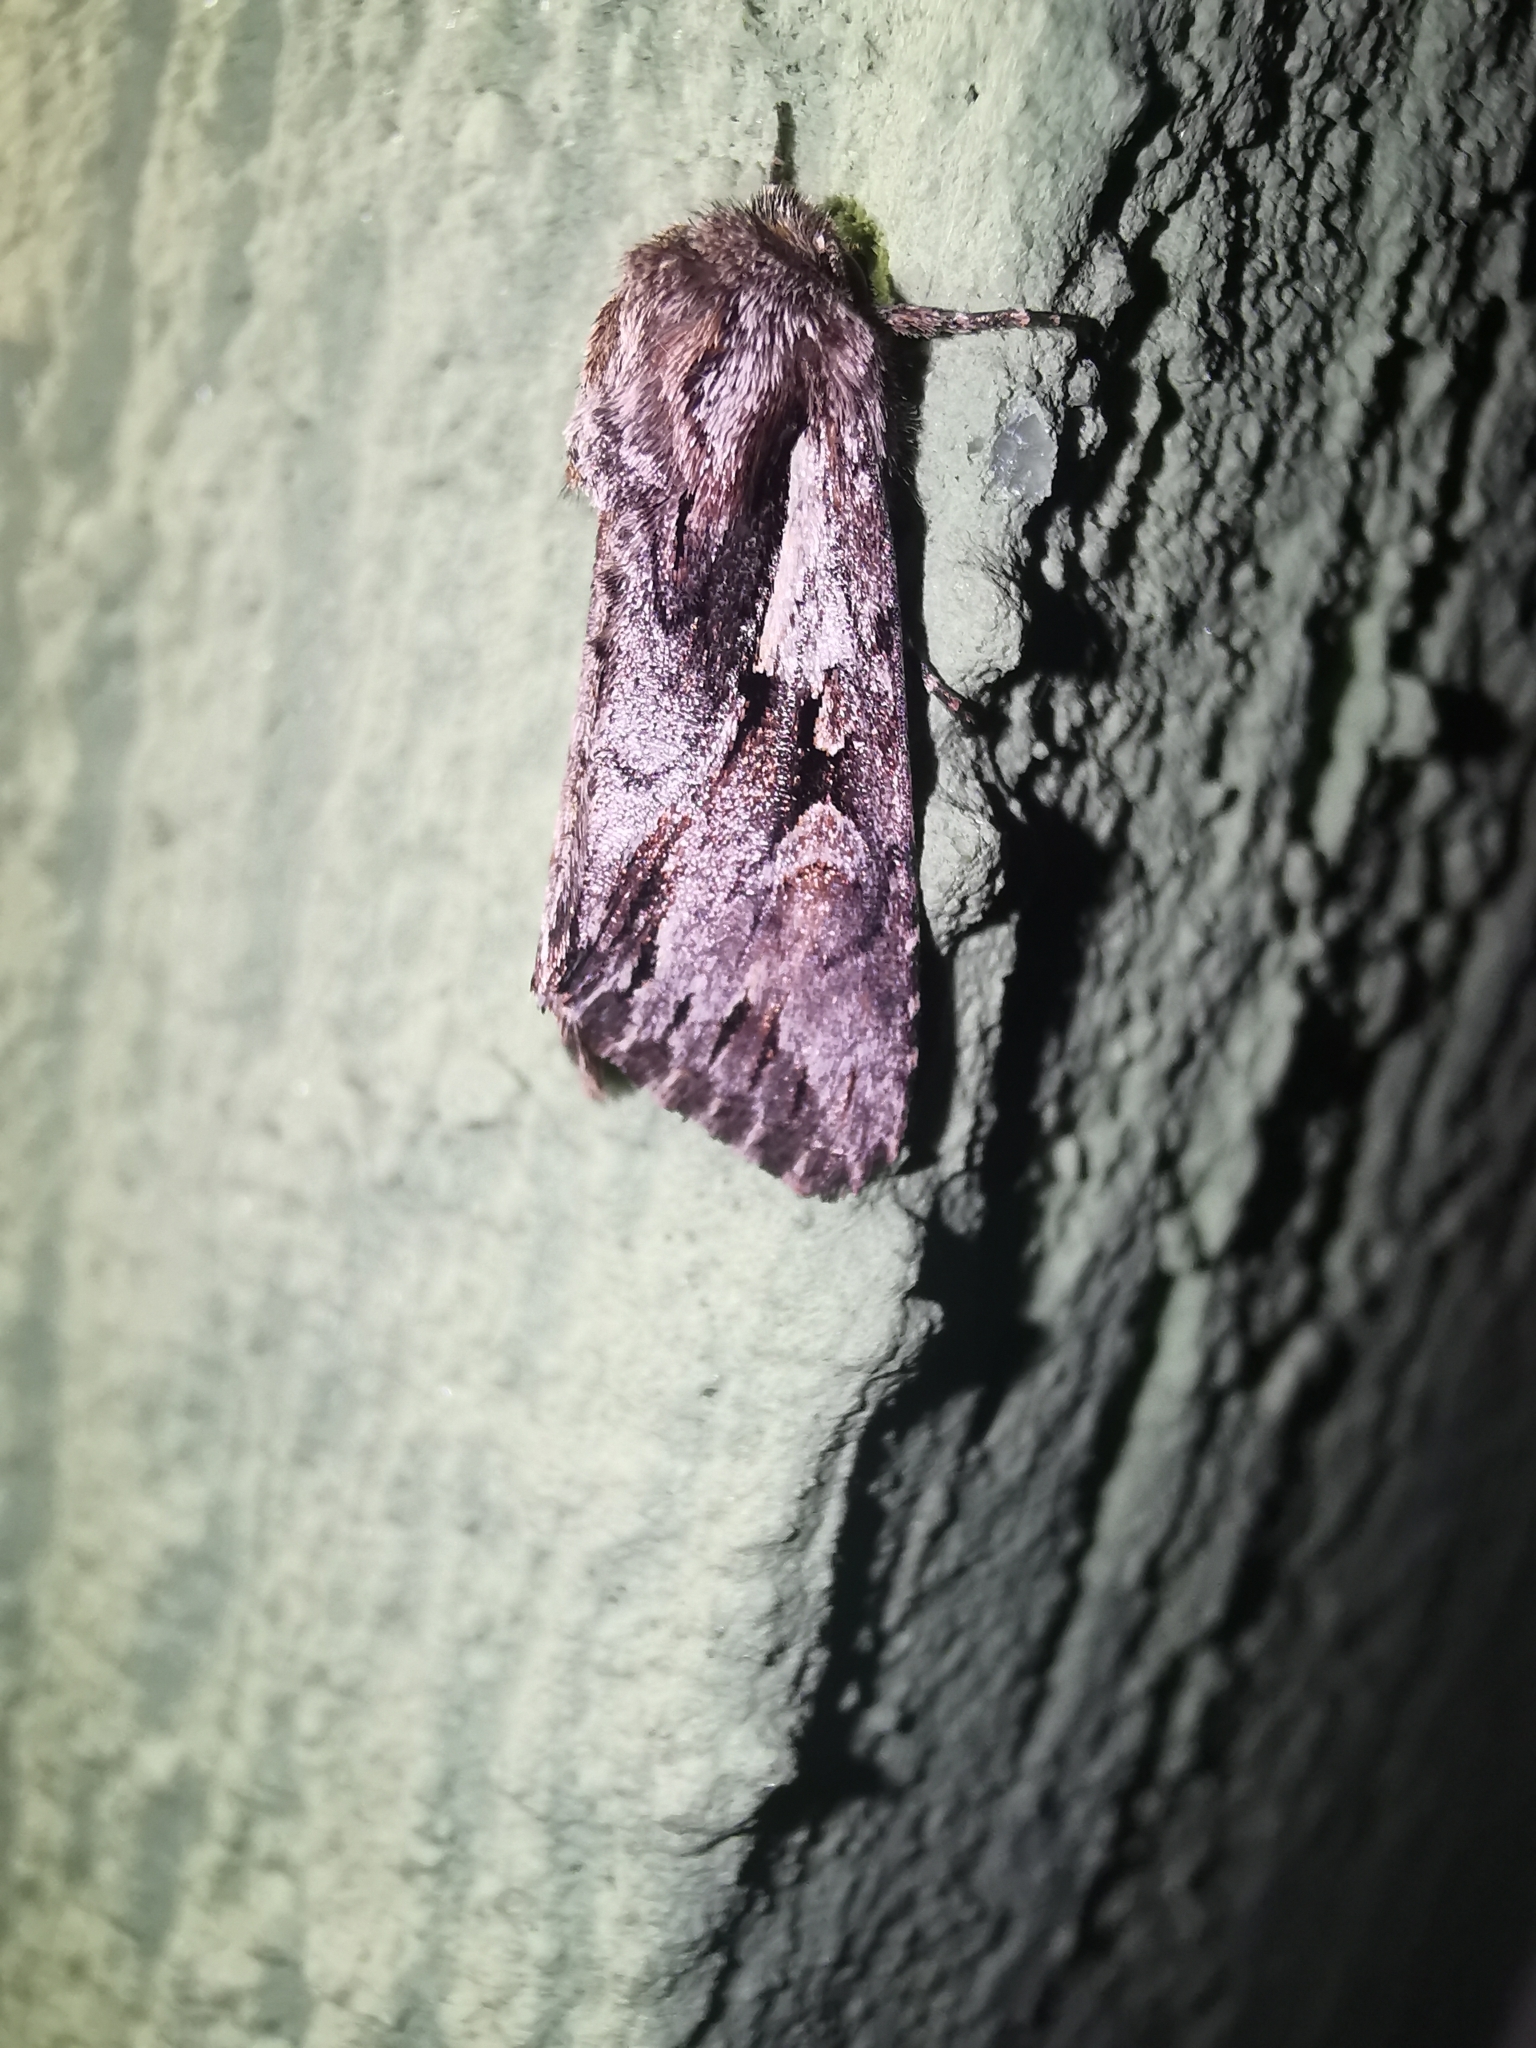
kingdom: Animalia
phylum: Arthropoda
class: Insecta
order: Lepidoptera
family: Noctuidae
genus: Chloantha
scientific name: Chloantha hyperici
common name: Pale-shouldered cloud
